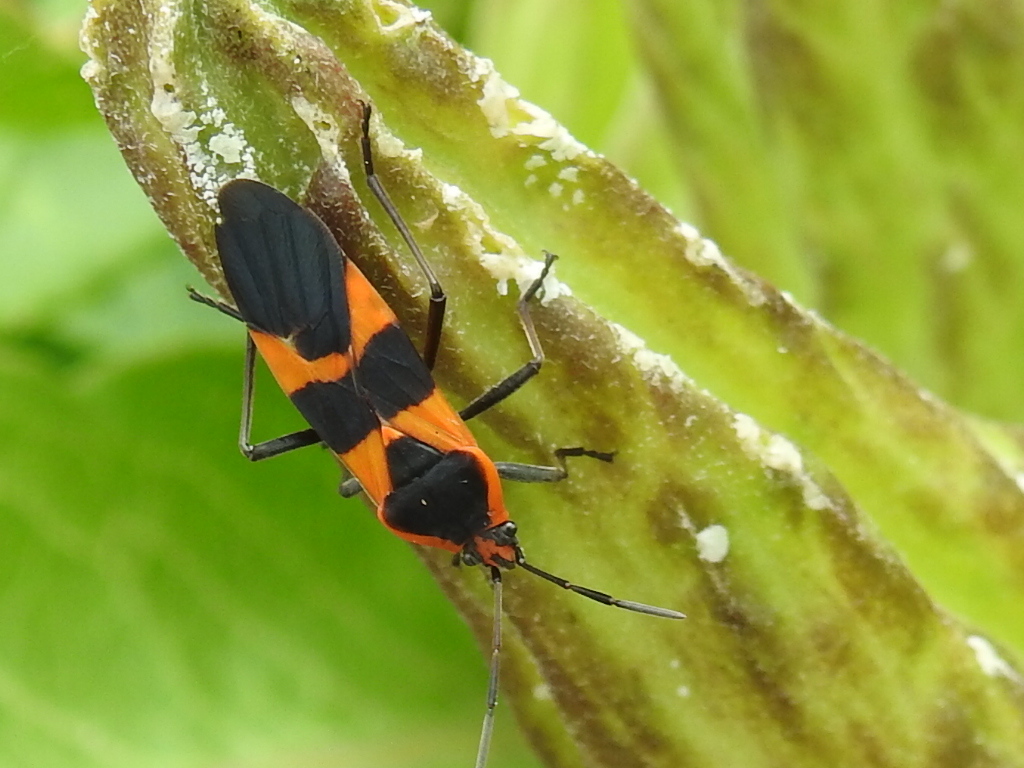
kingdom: Animalia
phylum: Arthropoda
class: Insecta
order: Hemiptera
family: Lygaeidae
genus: Oncopeltus
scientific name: Oncopeltus fasciatus
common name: Large milkweed bug
